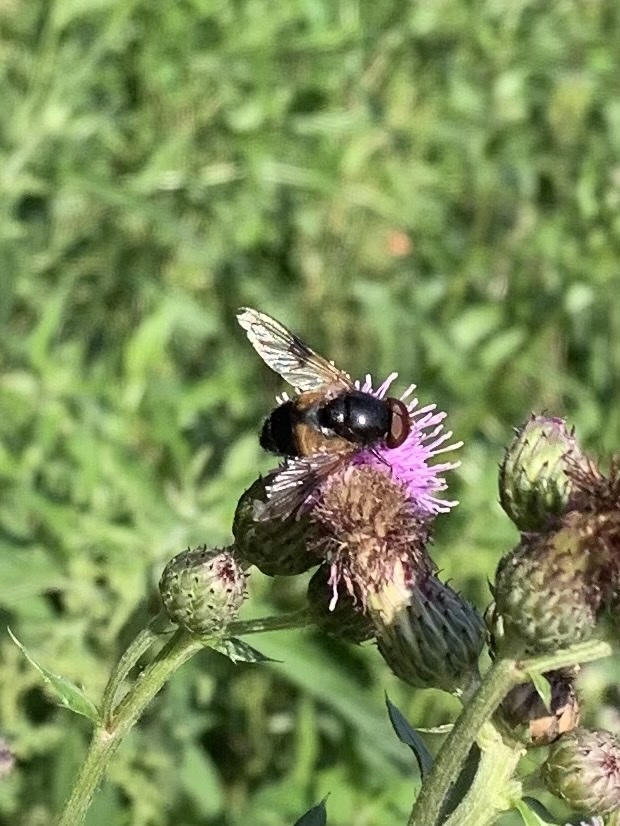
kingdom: Animalia
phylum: Arthropoda
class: Insecta
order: Diptera
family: Syrphidae
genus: Volucella
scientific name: Volucella pellucens
